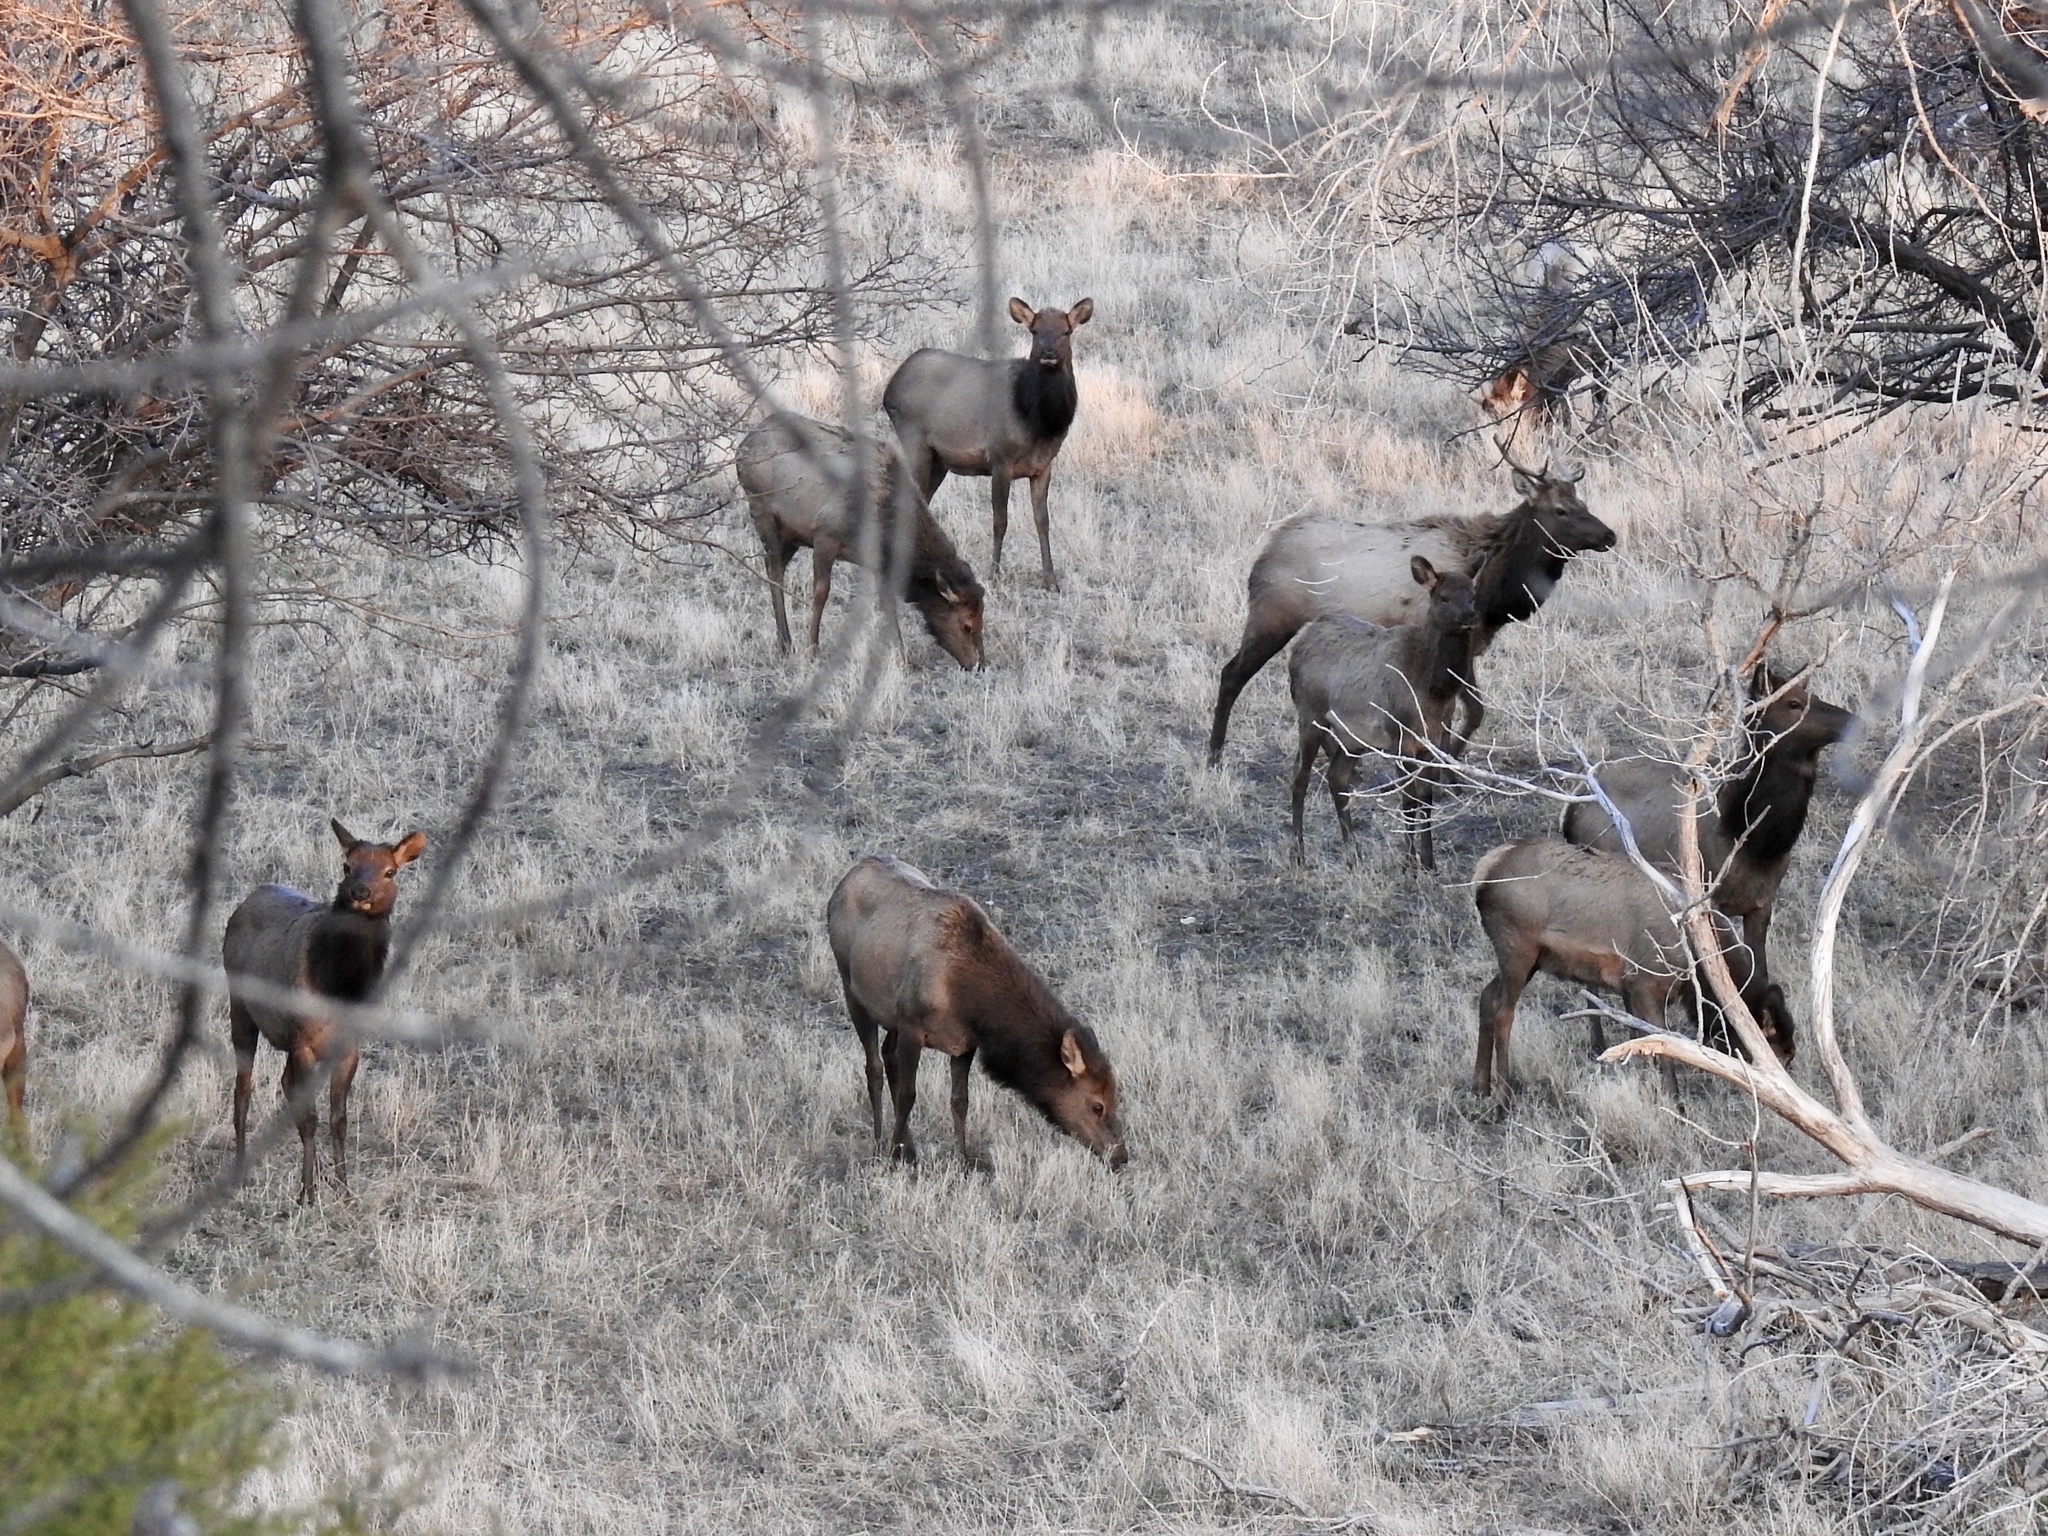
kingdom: Animalia
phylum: Chordata
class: Mammalia
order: Artiodactyla
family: Cervidae
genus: Cervus
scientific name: Cervus elaphus
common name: Red deer
